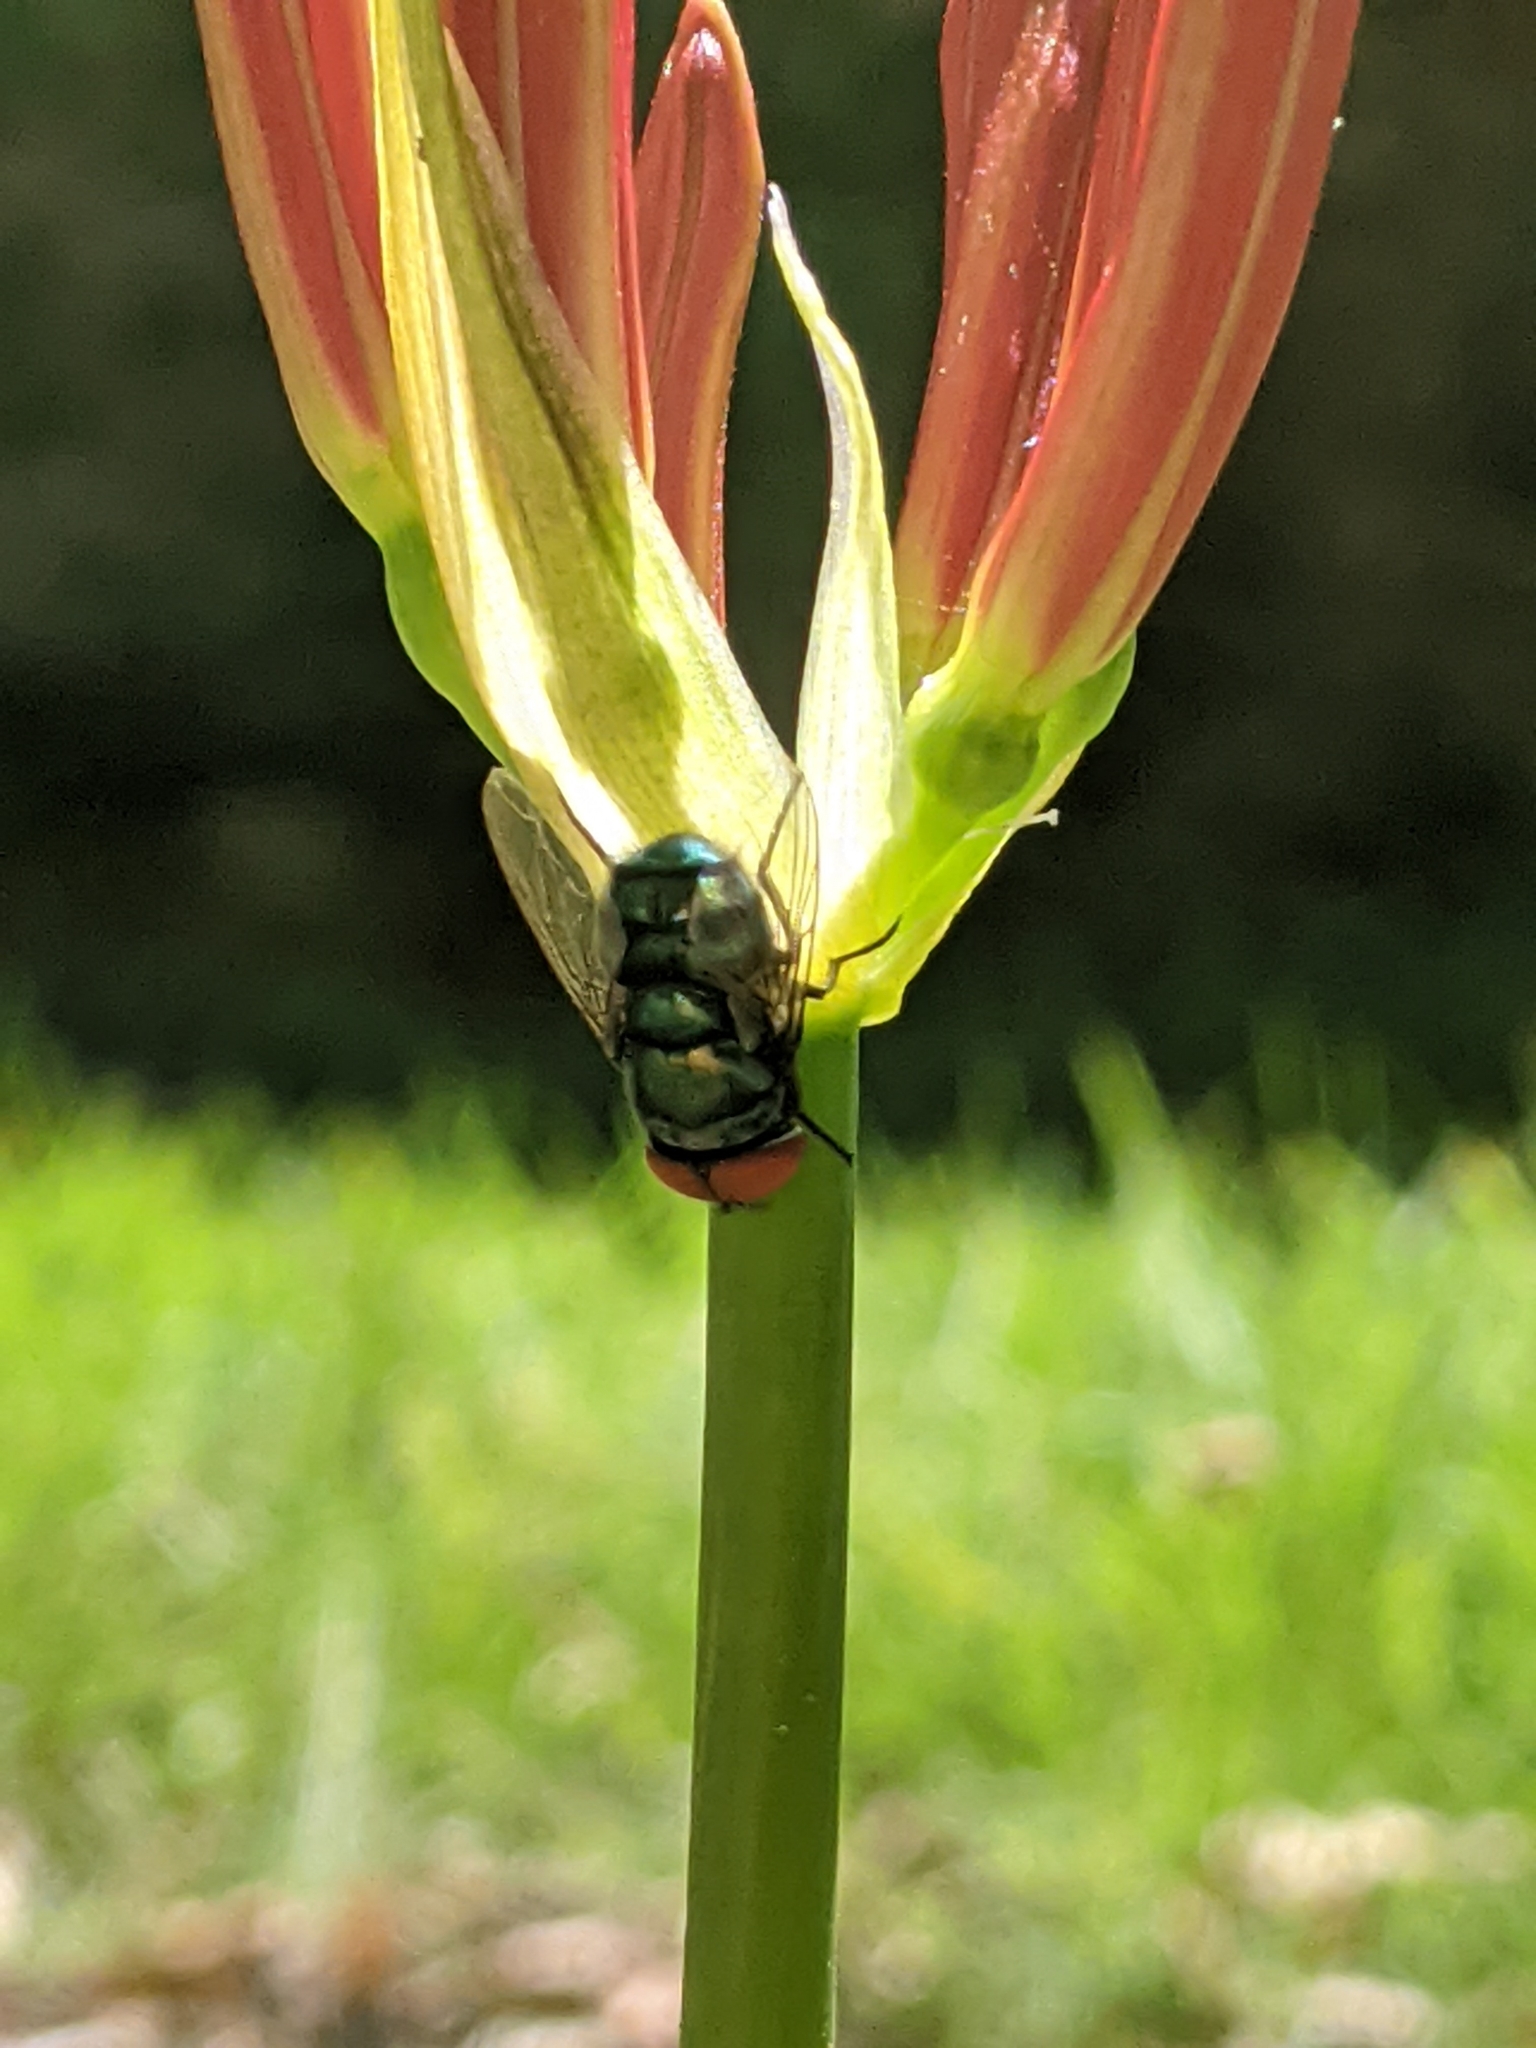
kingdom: Animalia
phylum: Arthropoda
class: Insecta
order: Diptera
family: Calliphoridae
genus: Chrysomya
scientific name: Chrysomya megacephala
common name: Blow fly
